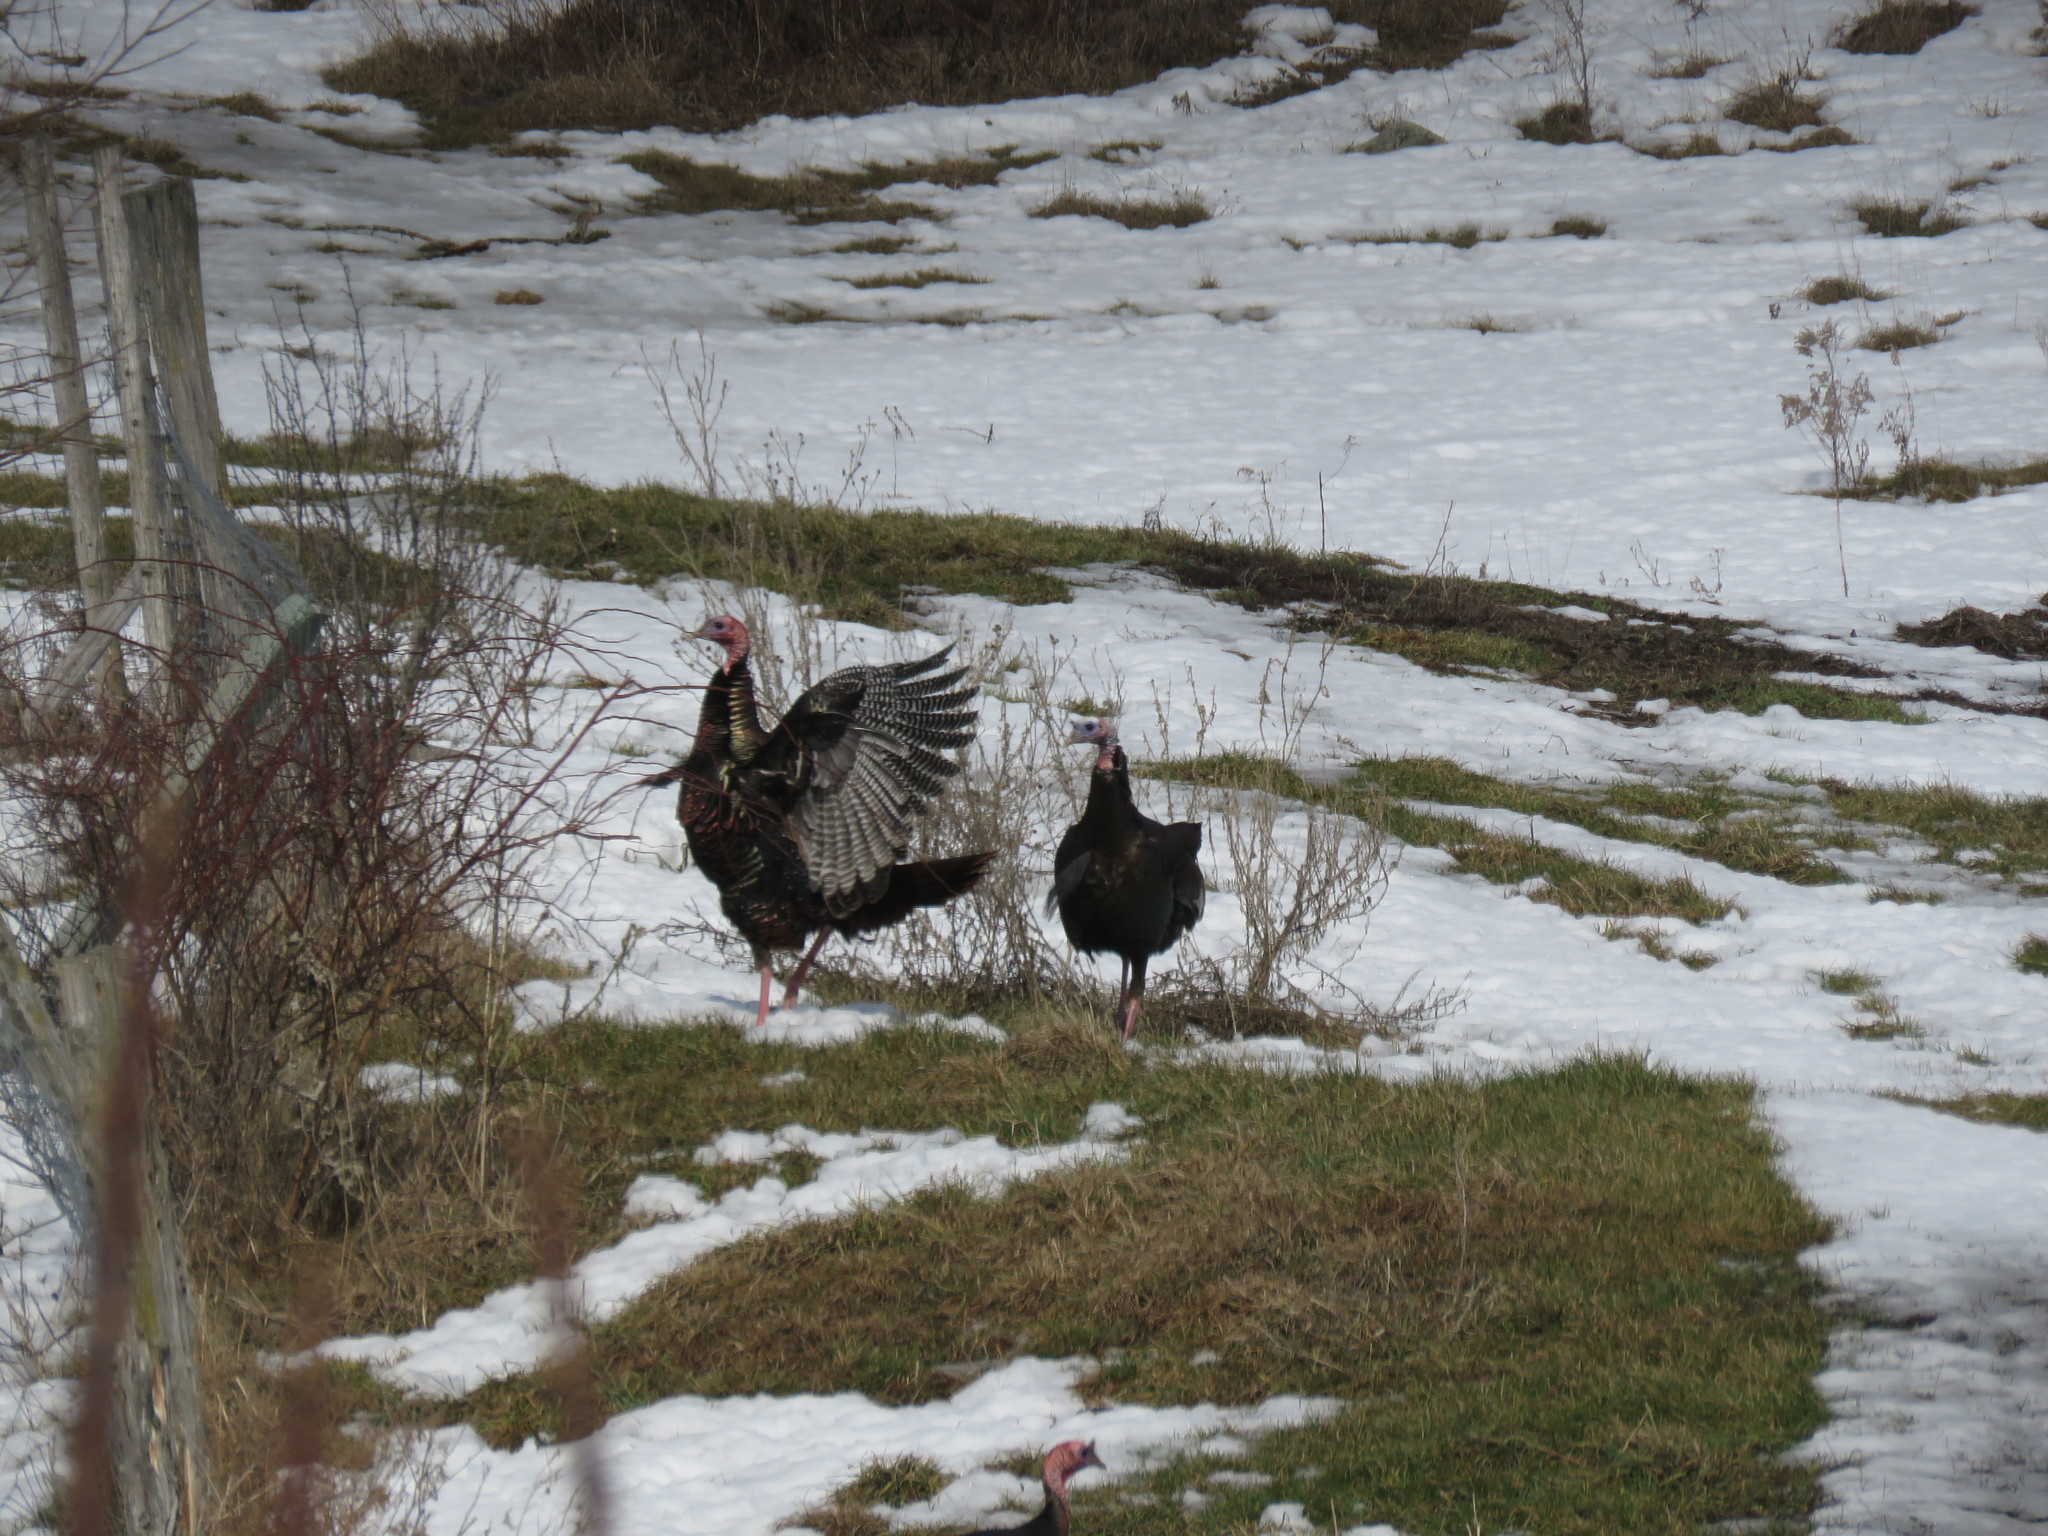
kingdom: Animalia
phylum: Chordata
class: Aves
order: Galliformes
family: Phasianidae
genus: Meleagris
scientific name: Meleagris gallopavo
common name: Wild turkey
